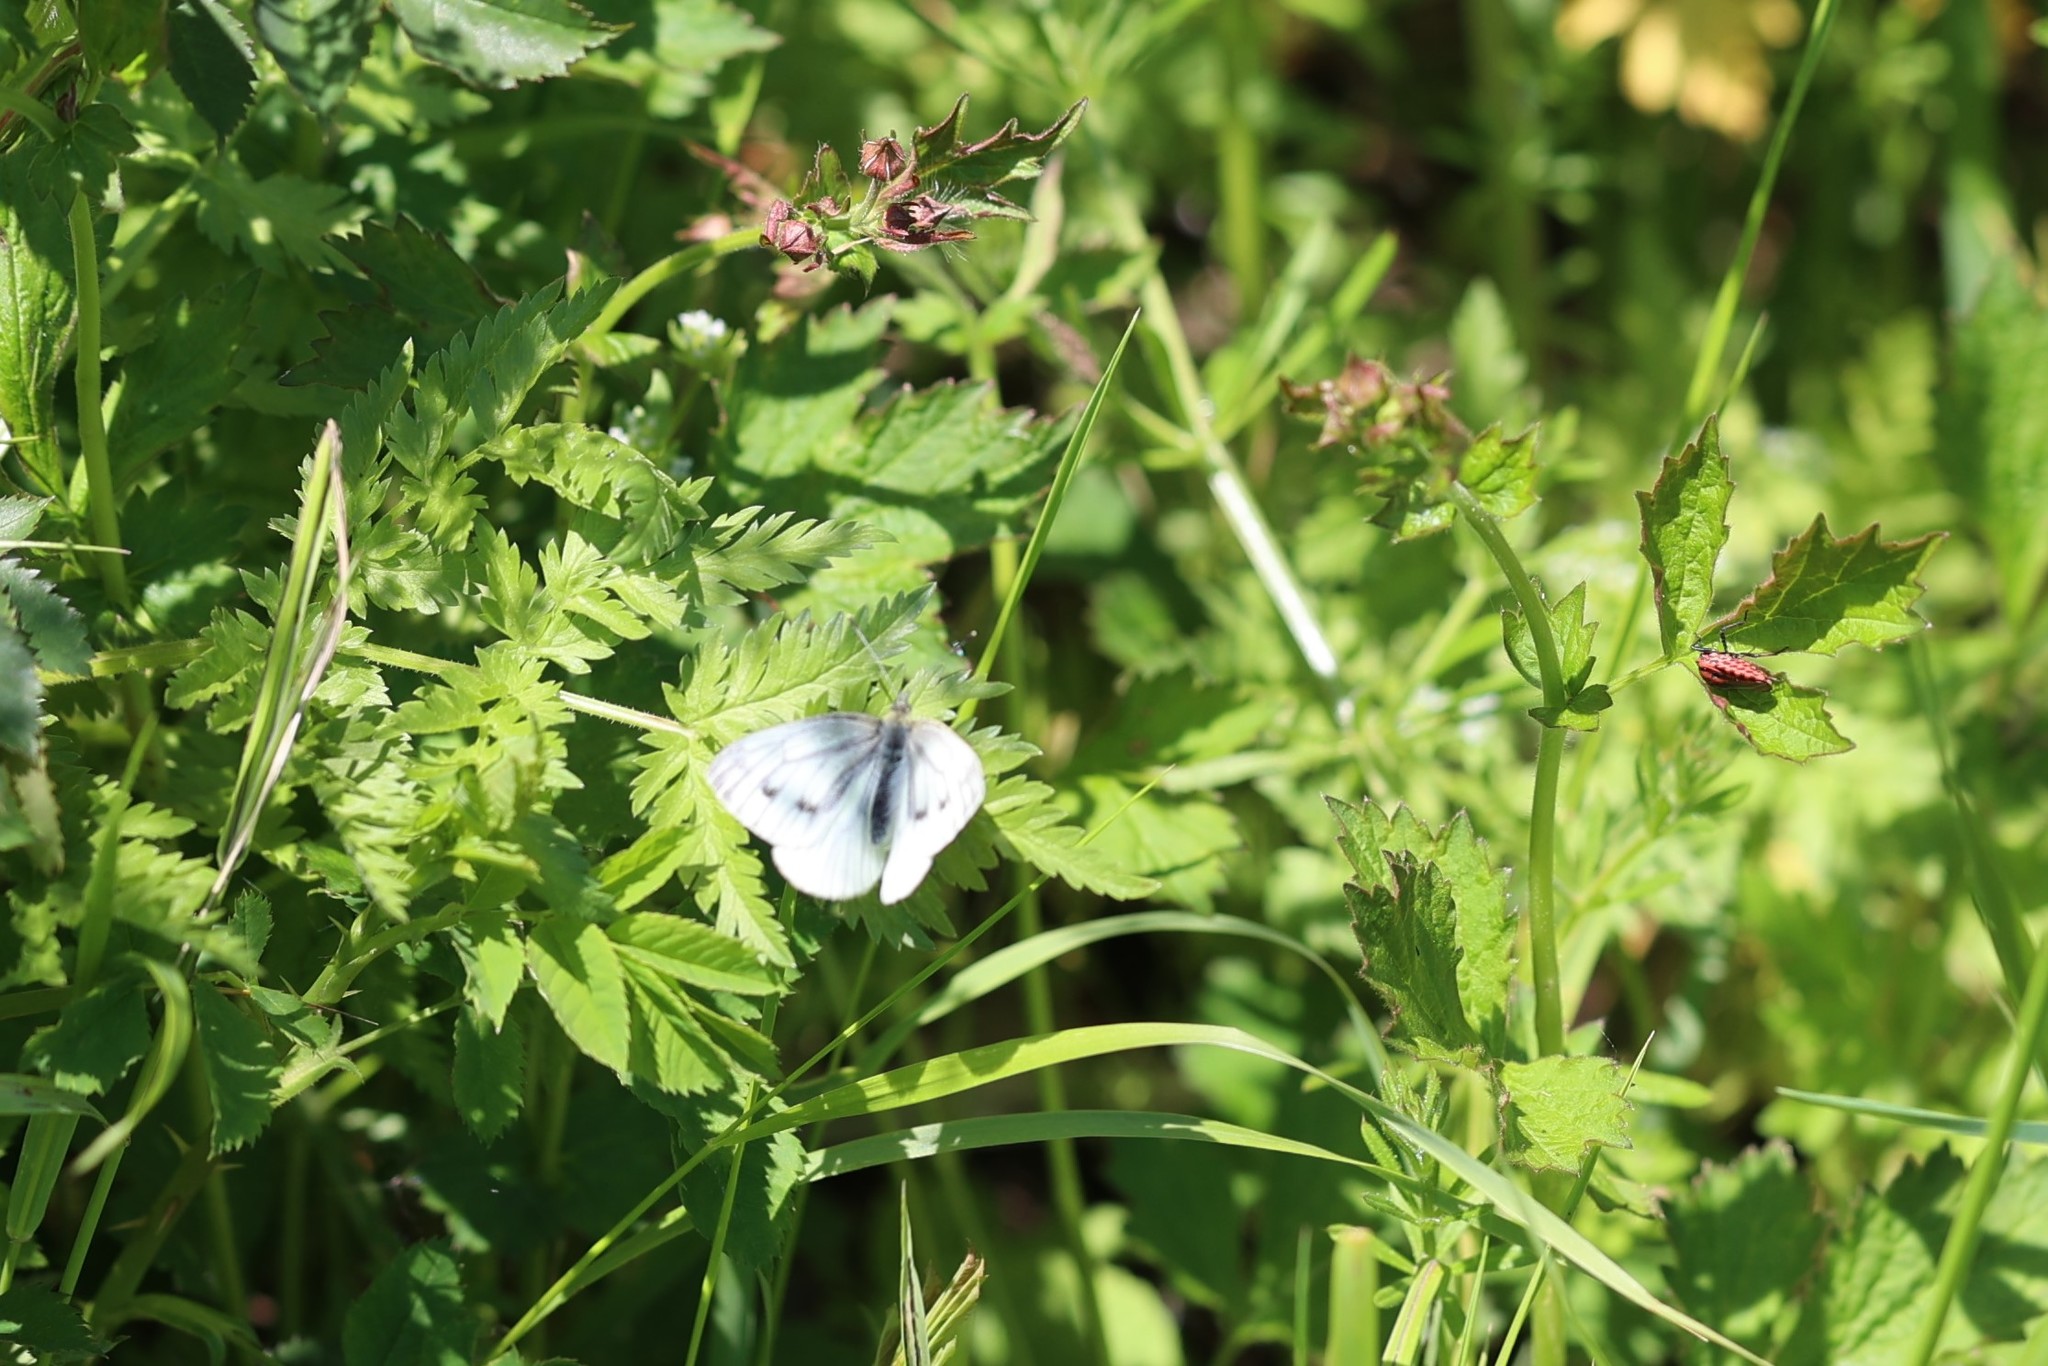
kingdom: Animalia
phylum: Arthropoda
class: Insecta
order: Lepidoptera
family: Pieridae
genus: Pieris
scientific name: Pieris napi
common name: Green-veined white
